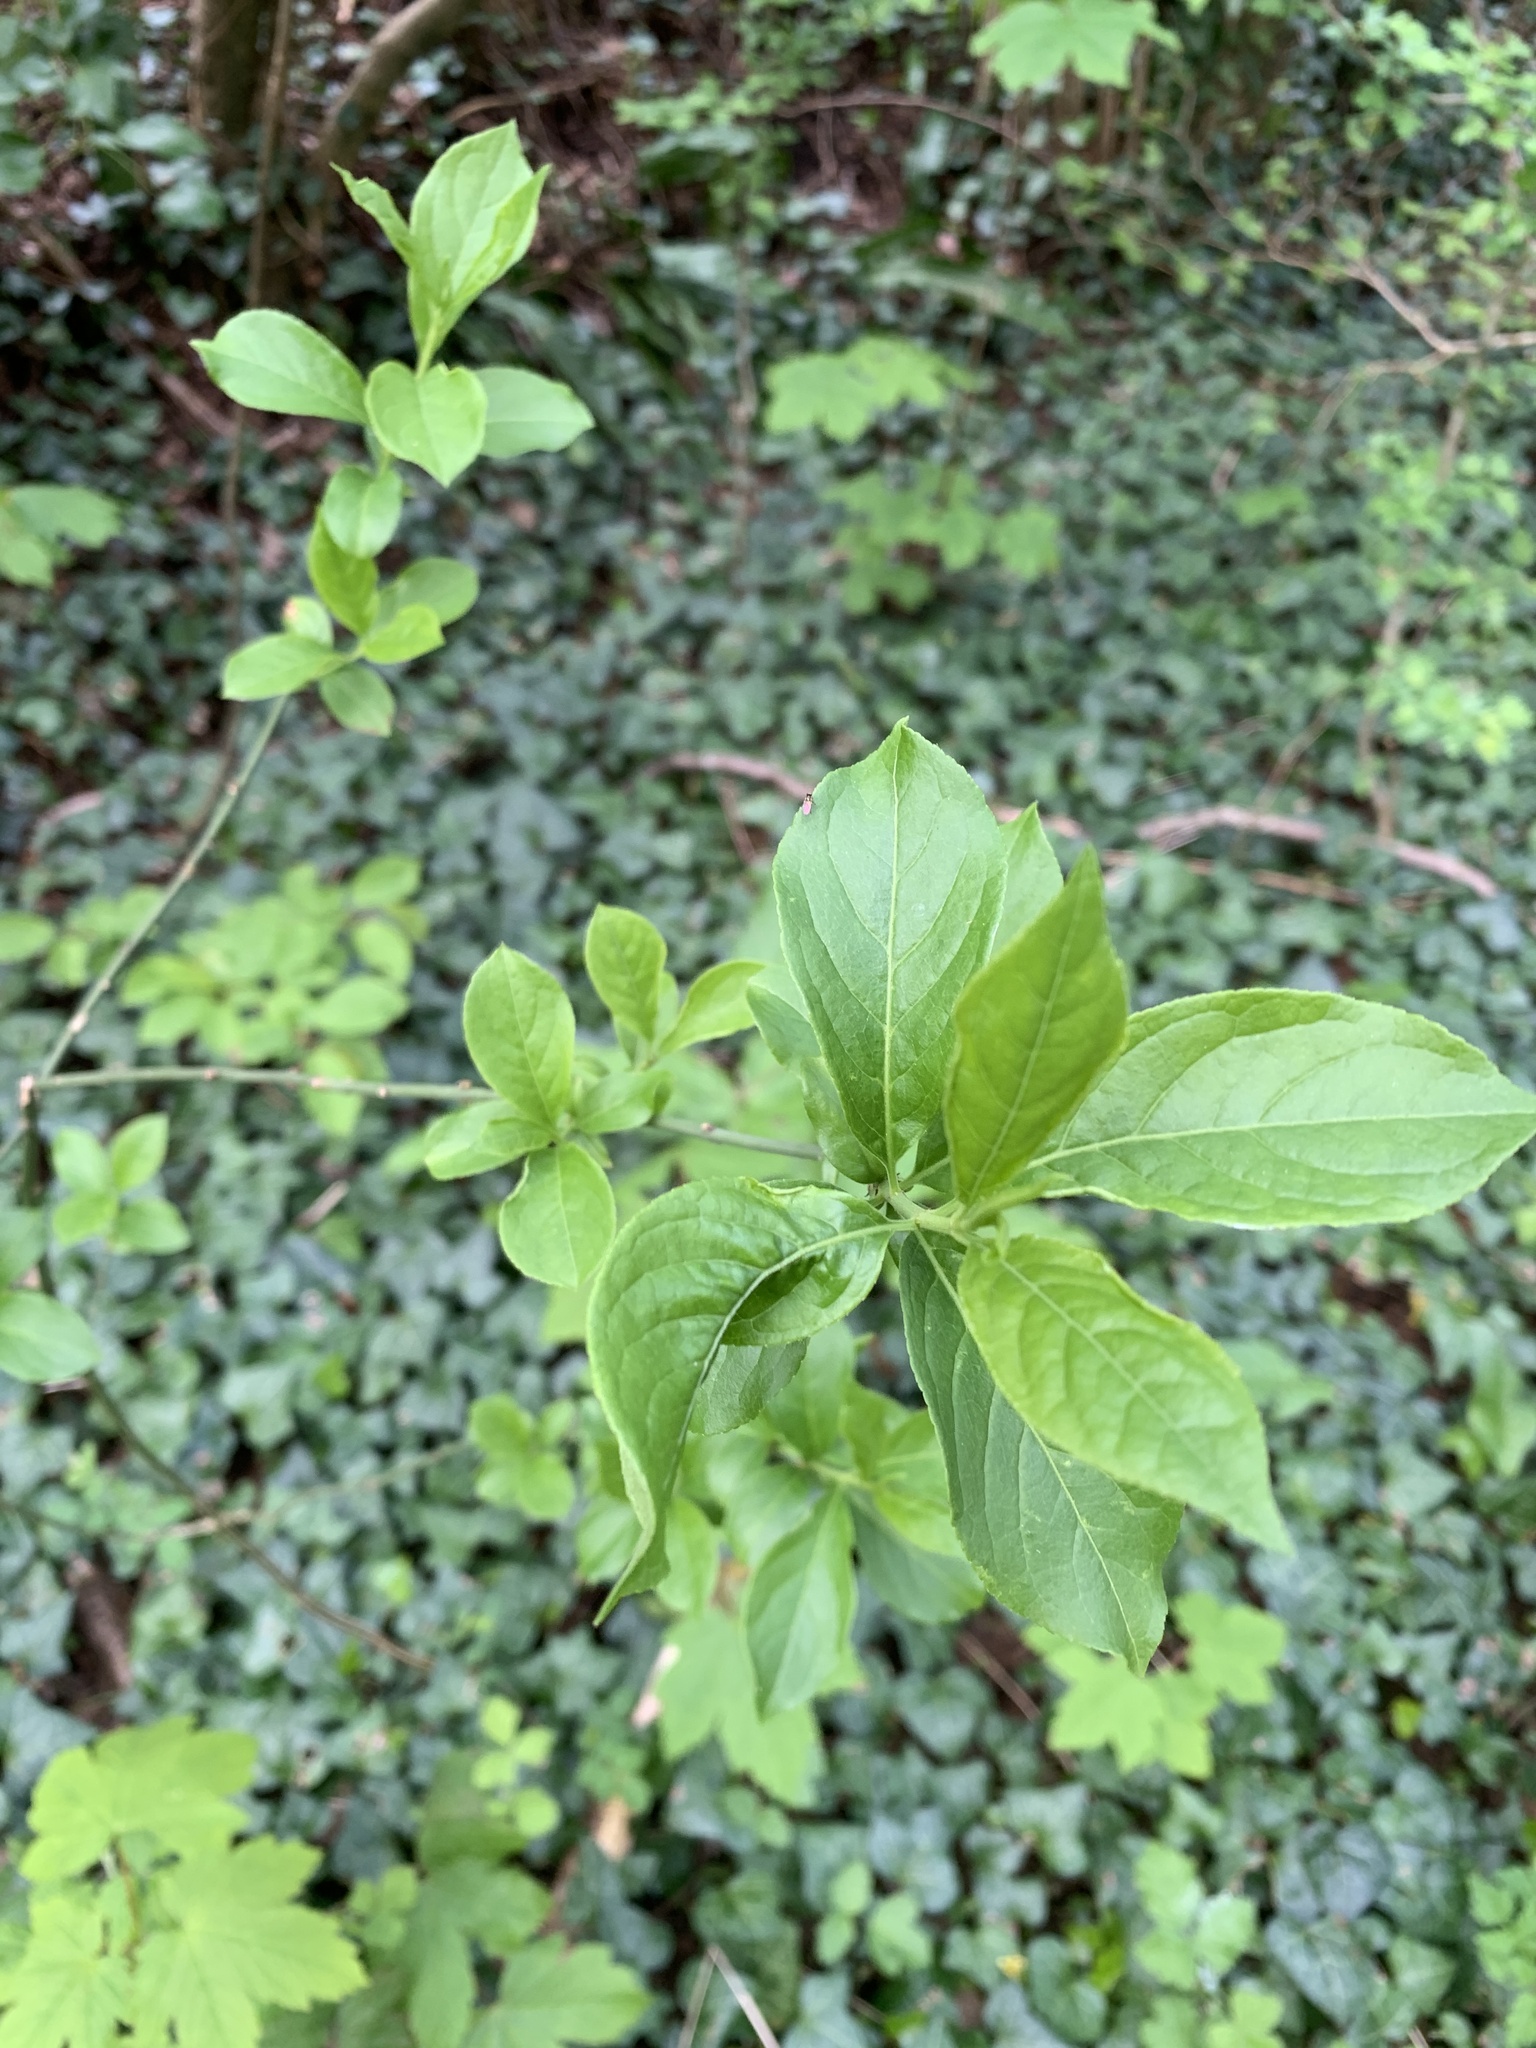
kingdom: Plantae
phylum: Tracheophyta
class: Magnoliopsida
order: Celastrales
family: Celastraceae
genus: Euonymus
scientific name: Euonymus europaeus
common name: Spindle
